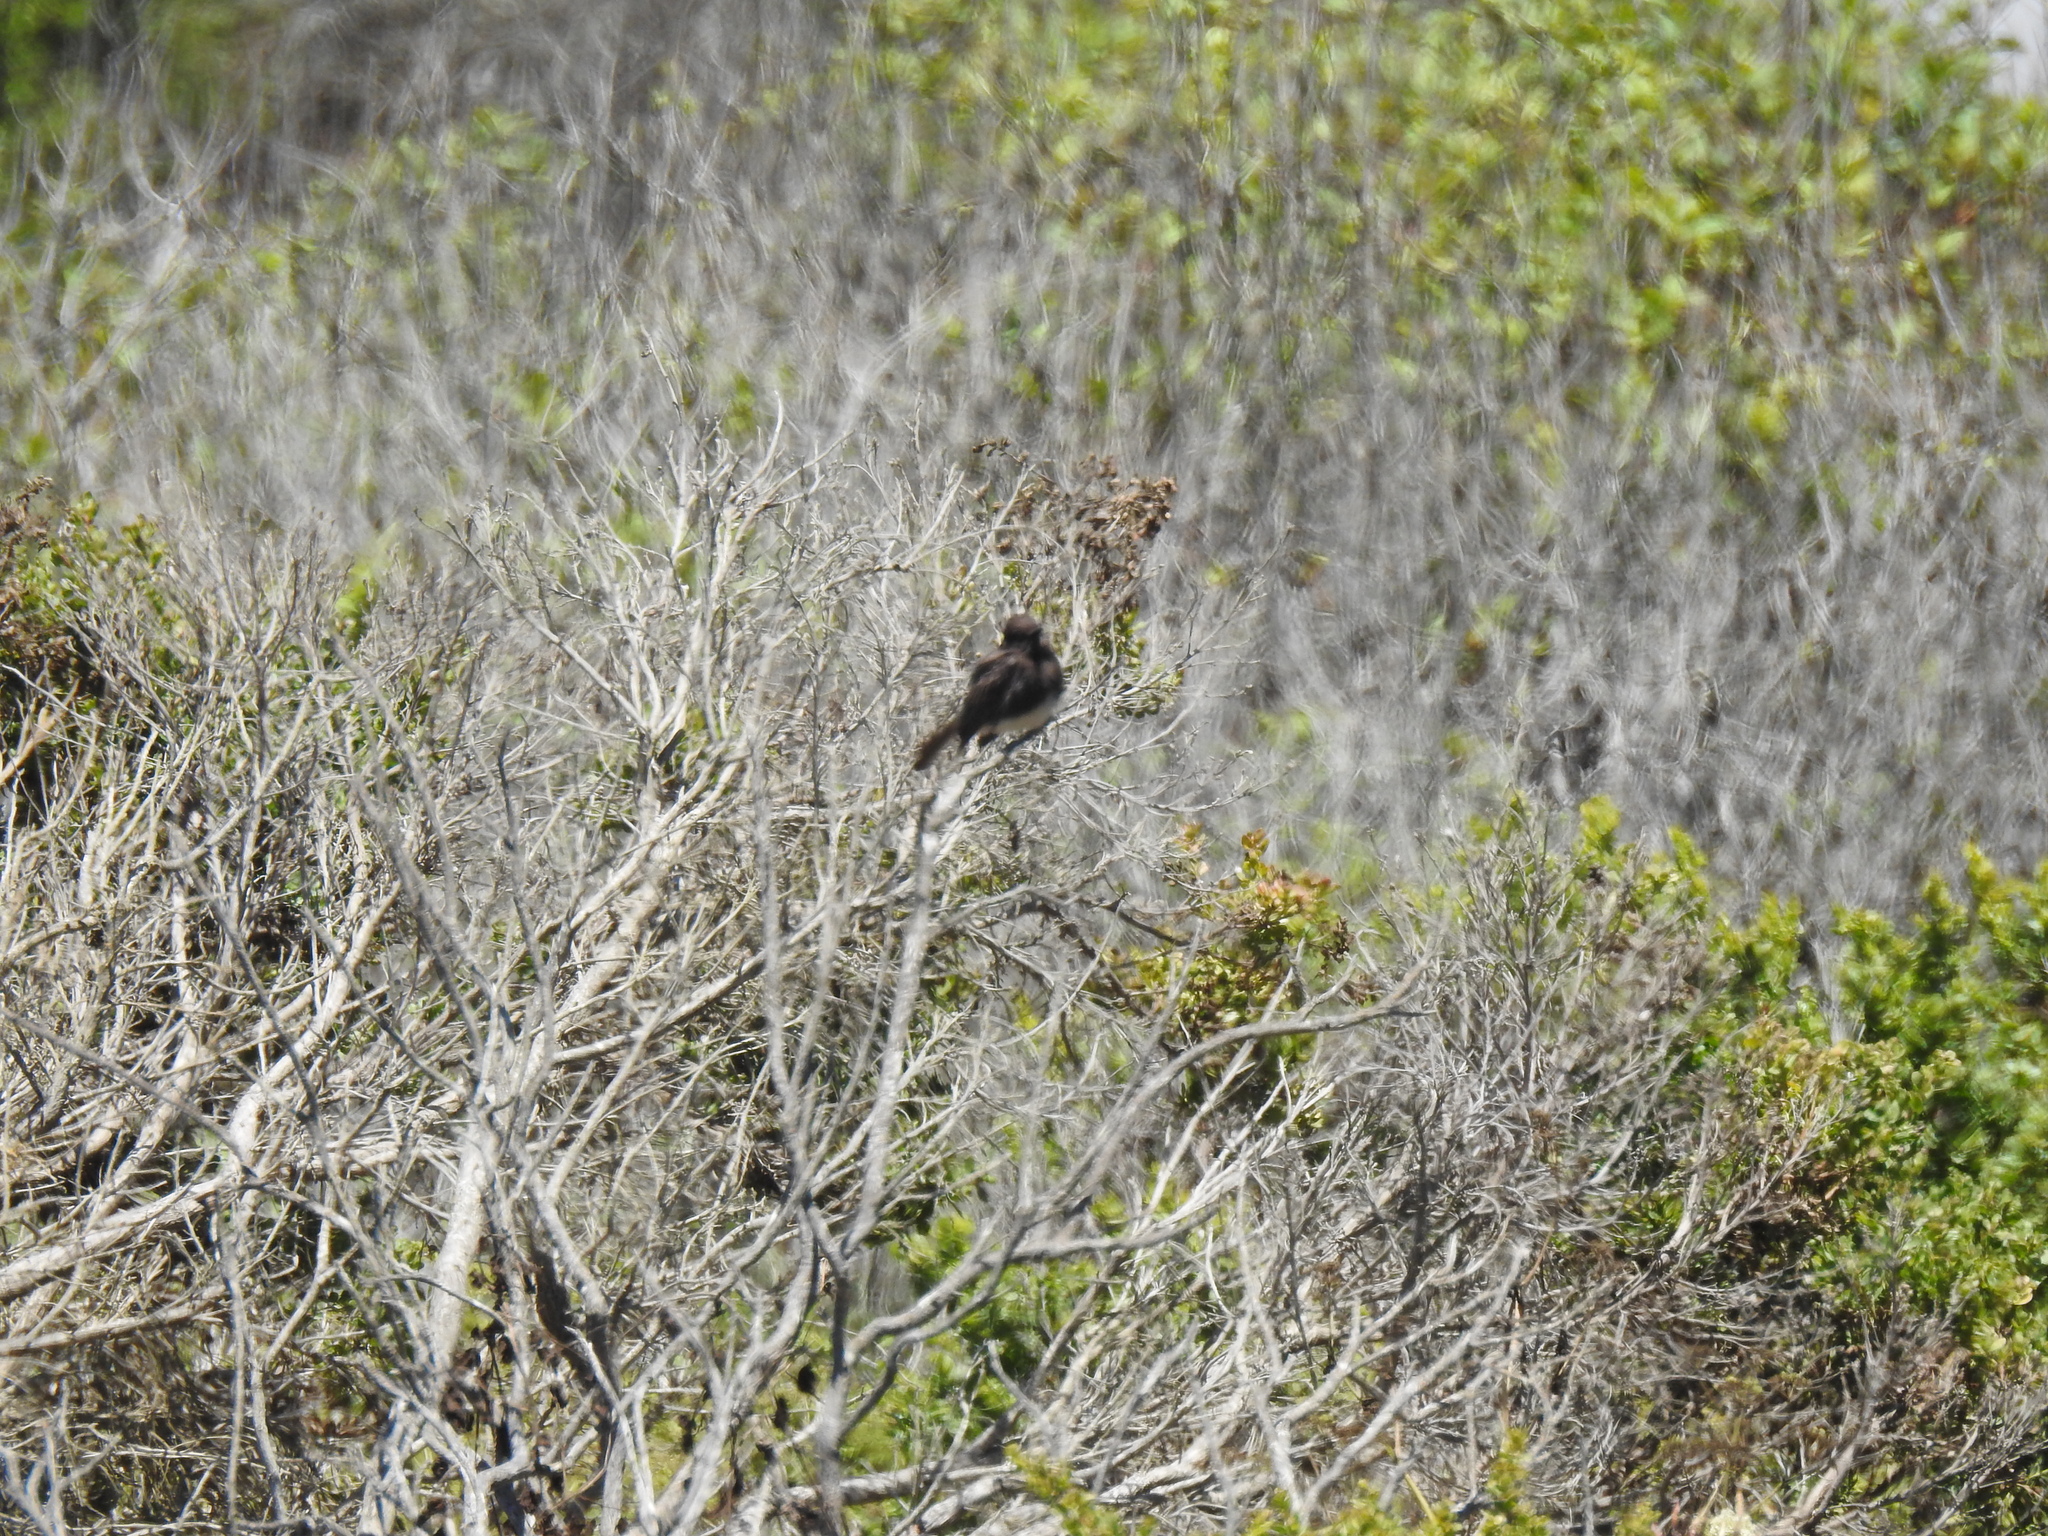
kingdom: Animalia
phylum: Chordata
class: Aves
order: Passeriformes
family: Tyrannidae
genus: Sayornis
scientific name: Sayornis nigricans
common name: Black phoebe
